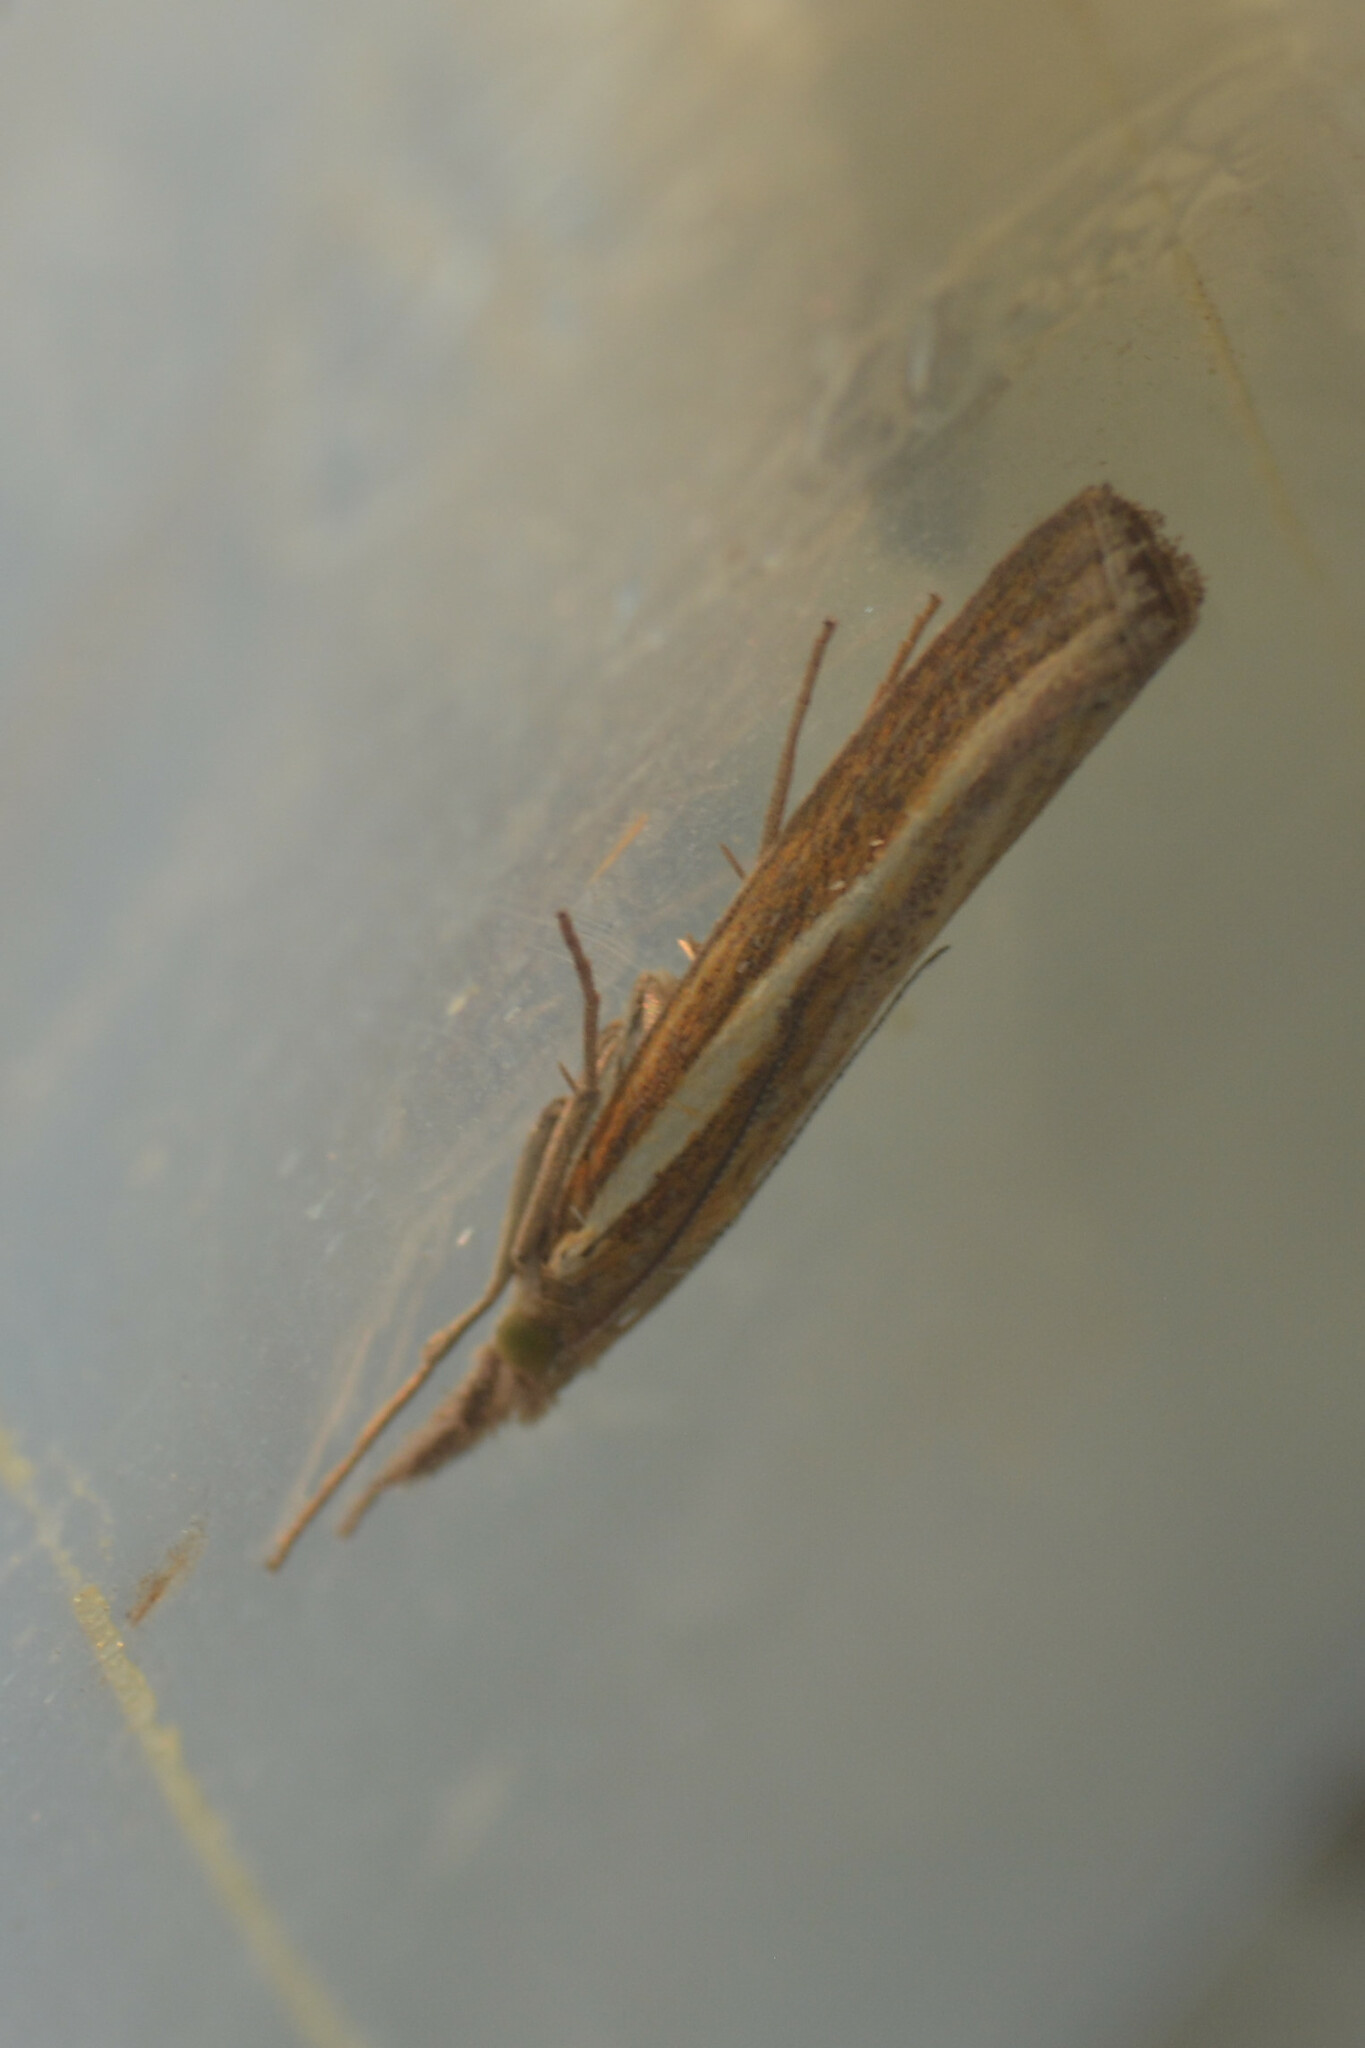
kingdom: Animalia
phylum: Arthropoda
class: Insecta
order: Lepidoptera
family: Crambidae
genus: Agriphila
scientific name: Agriphila tristellus
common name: Common grass-veneer
